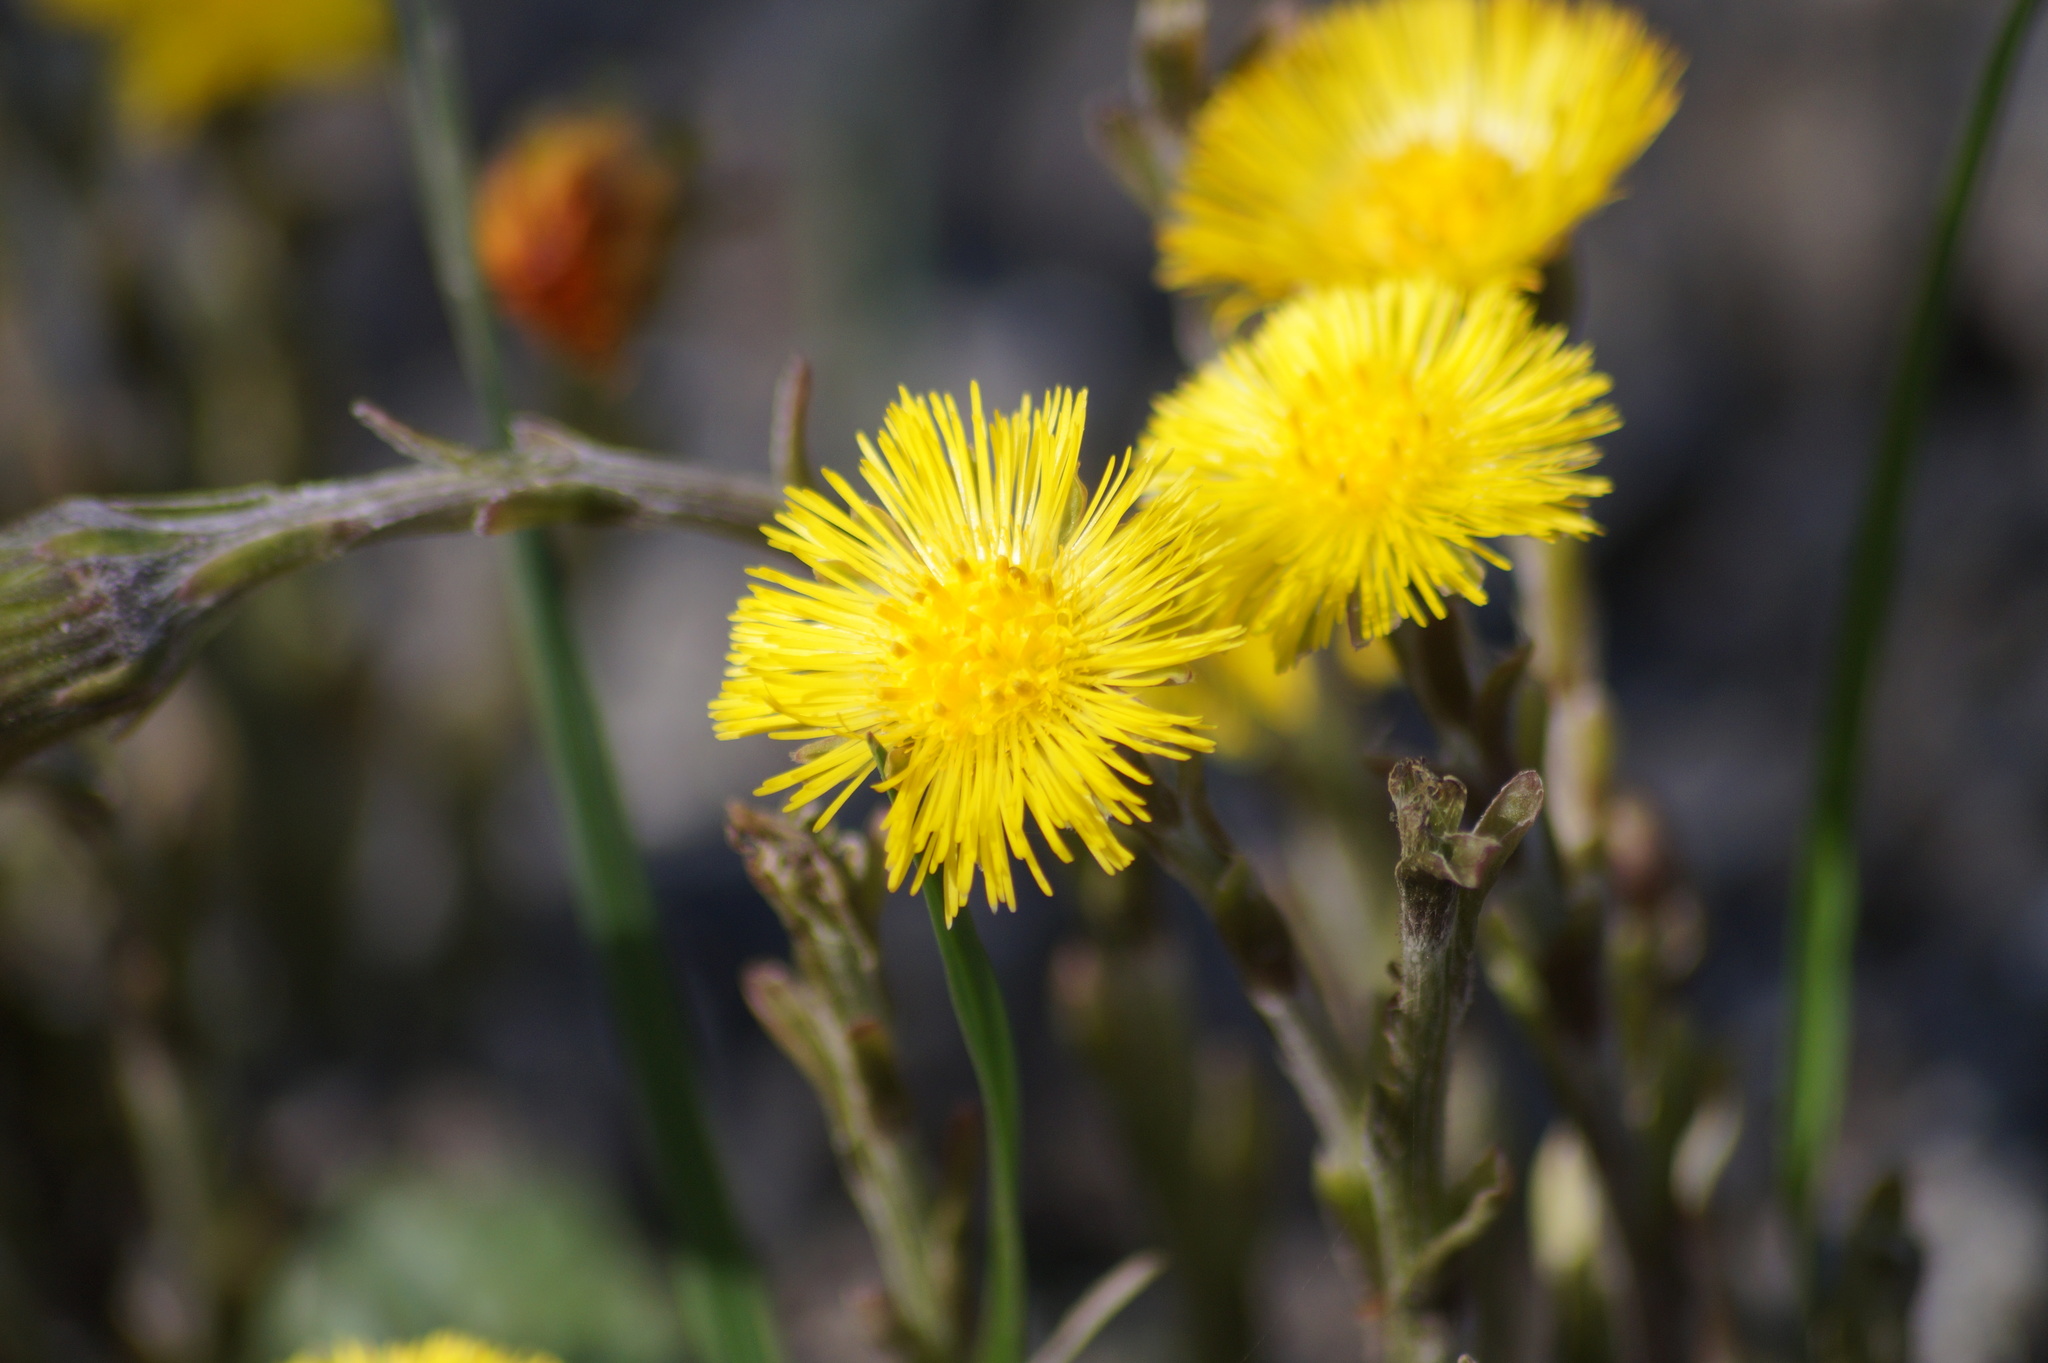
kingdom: Plantae
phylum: Tracheophyta
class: Magnoliopsida
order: Asterales
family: Asteraceae
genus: Tussilago
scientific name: Tussilago farfara
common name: Coltsfoot
